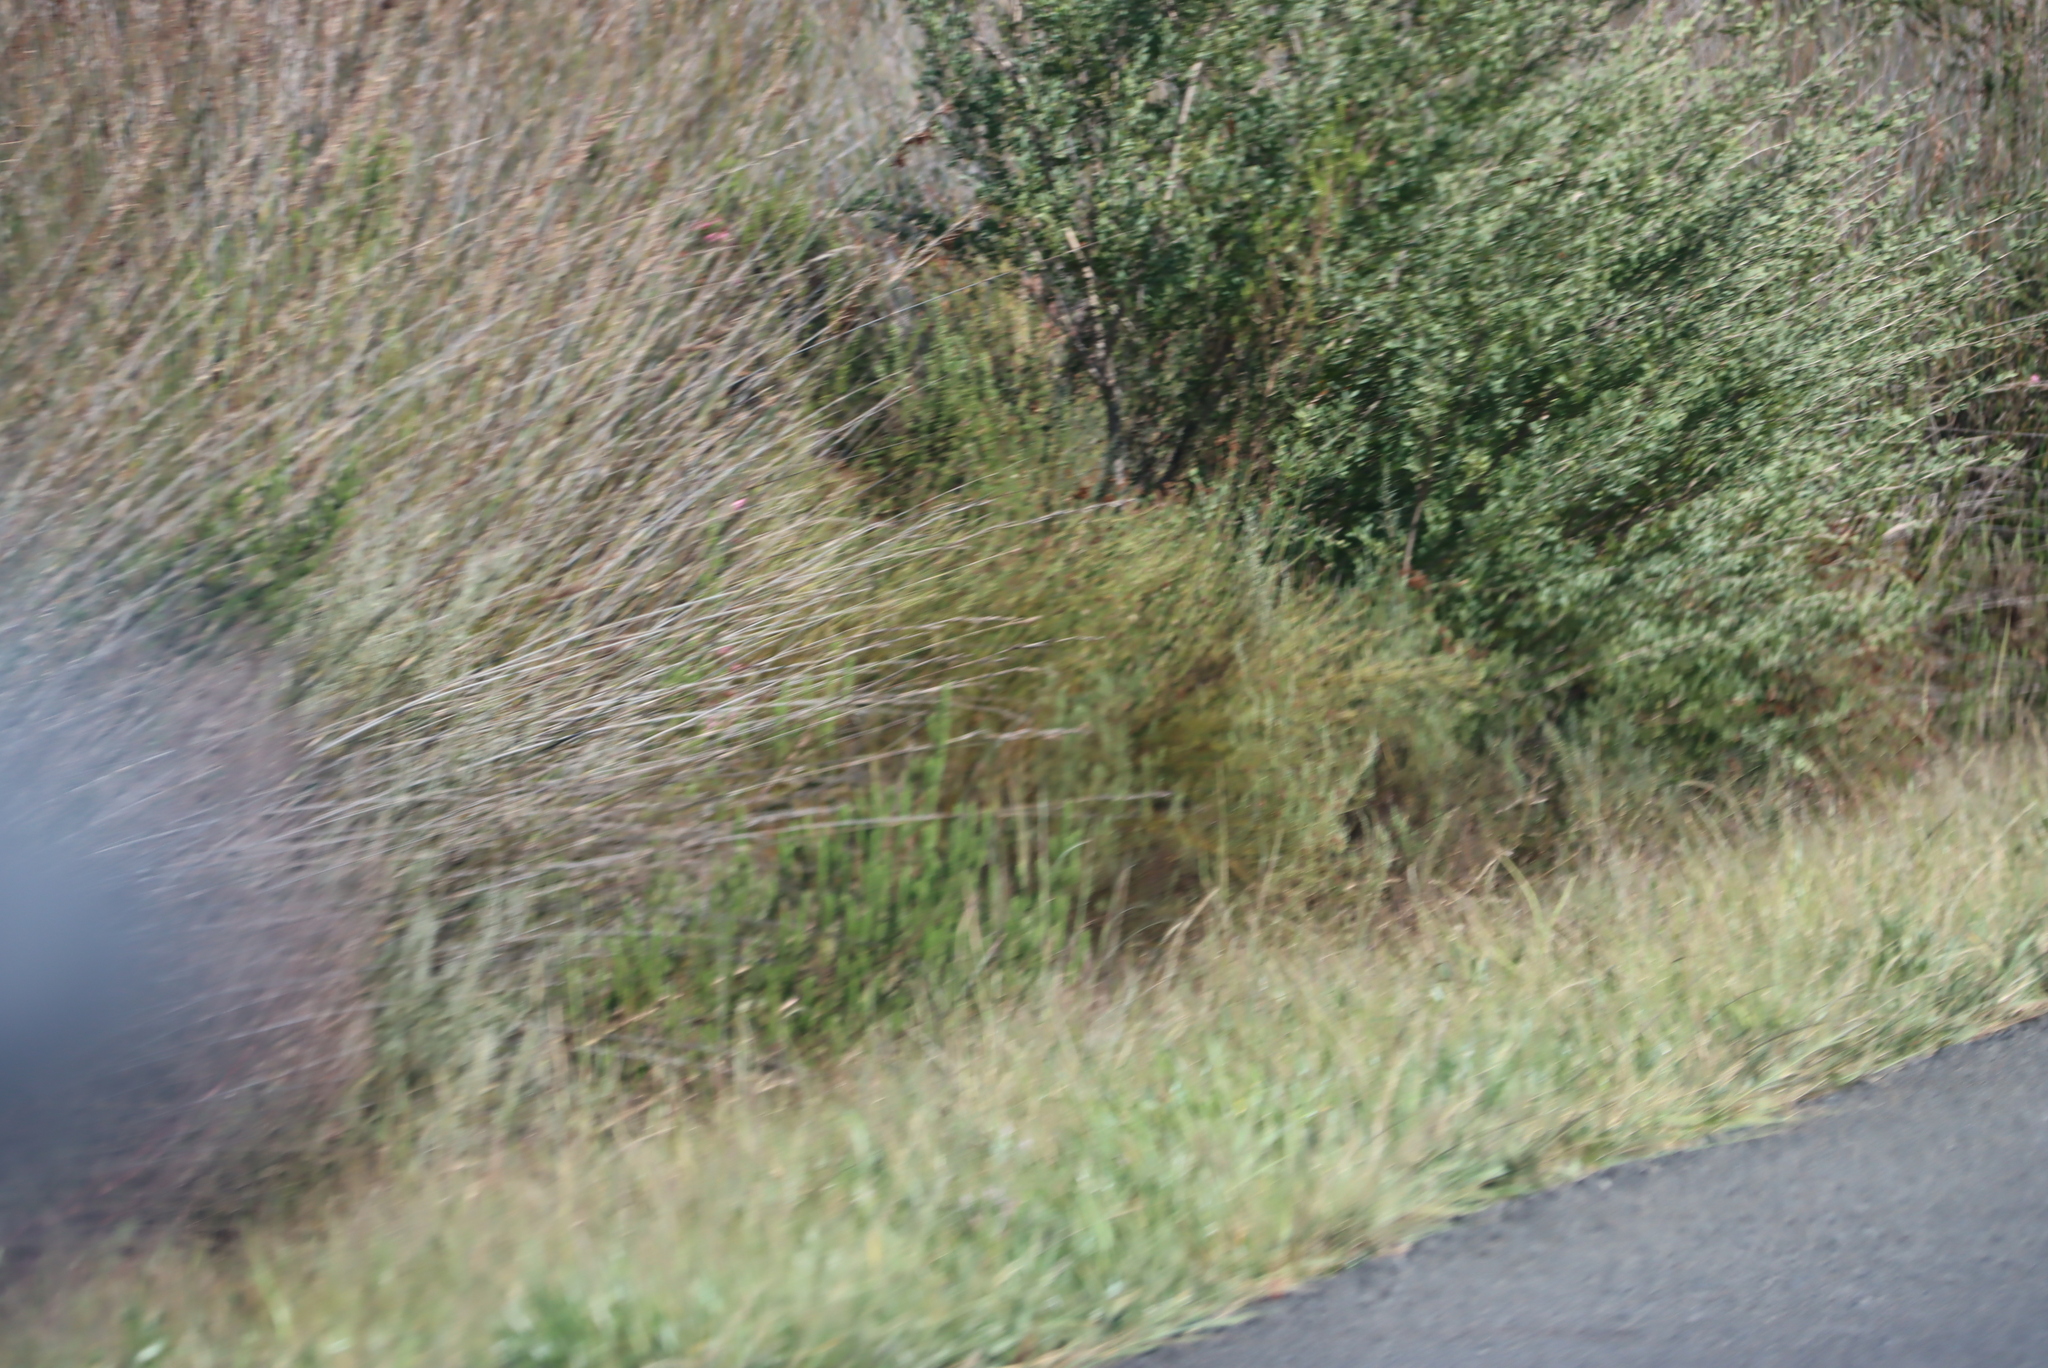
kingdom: Plantae
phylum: Tracheophyta
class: Magnoliopsida
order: Myrtales
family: Myrtaceae
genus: Leptospermum
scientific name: Leptospermum laevigatum
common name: Australian teatree
